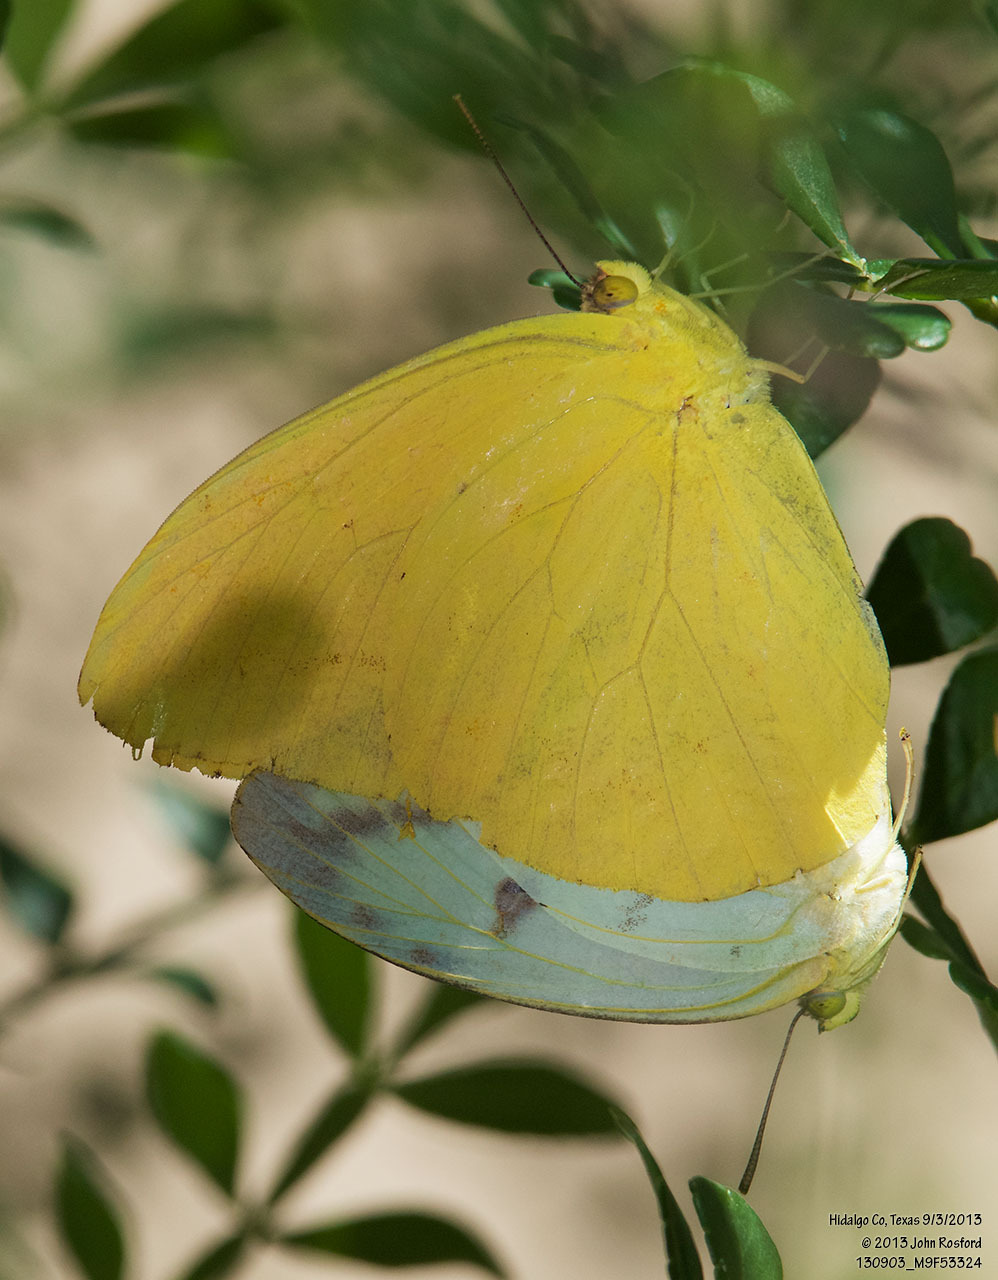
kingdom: Animalia
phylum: Arthropoda
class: Insecta
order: Lepidoptera
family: Pieridae
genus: Phoebis
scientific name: Phoebis agarithe
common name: Large orange sulphur
